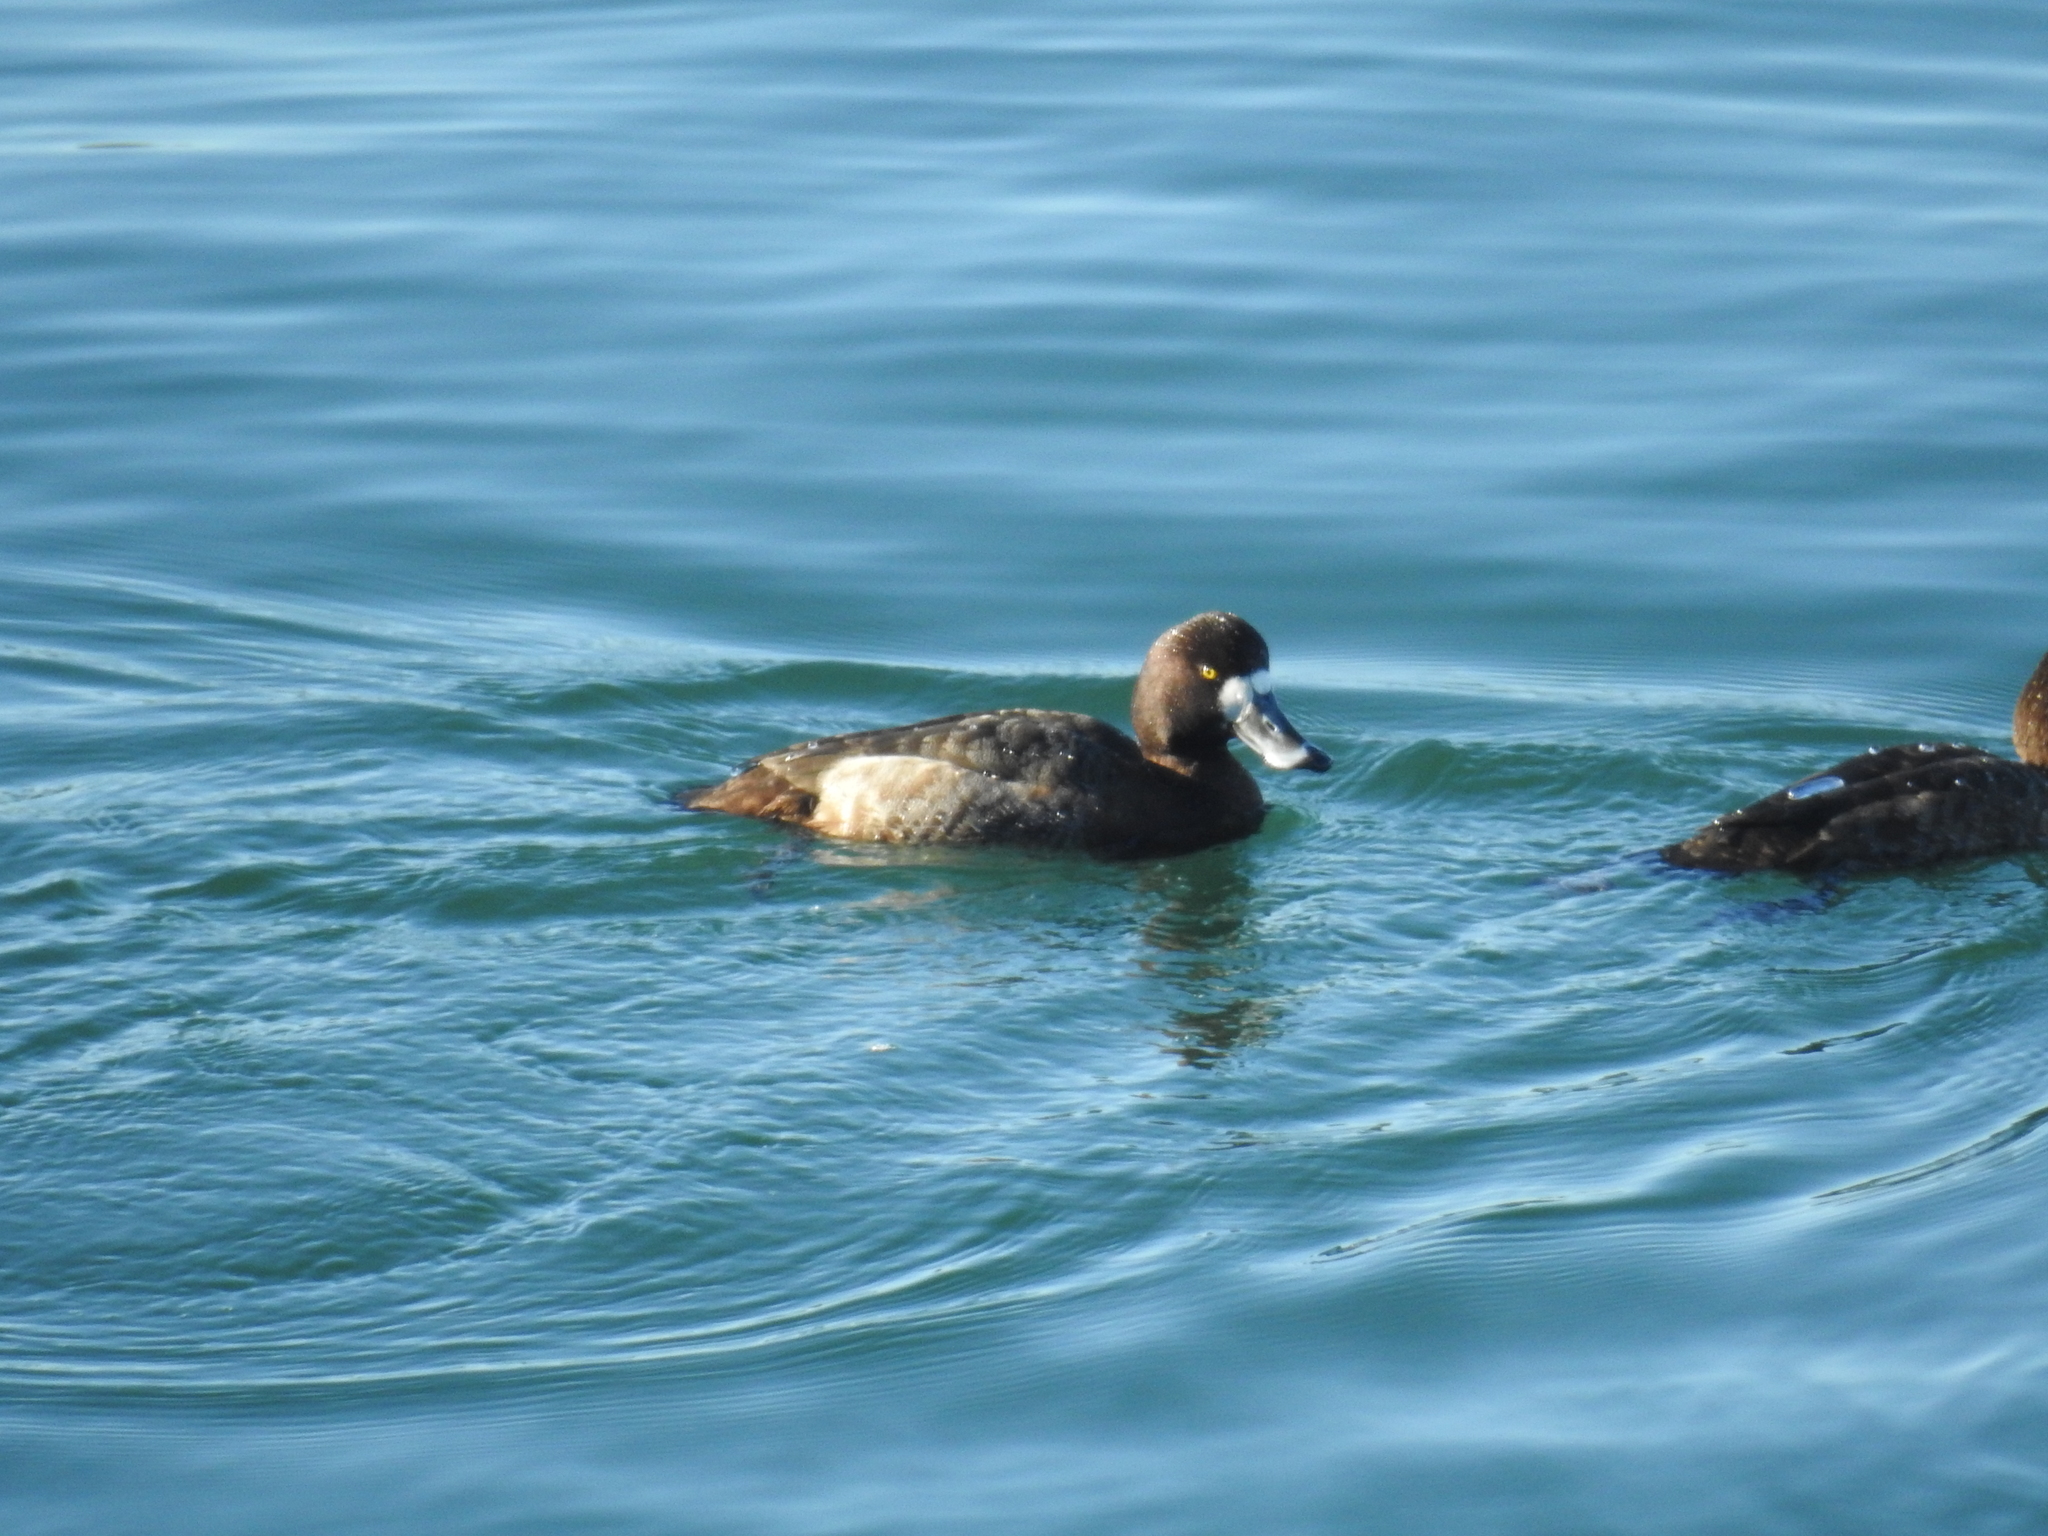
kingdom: Animalia
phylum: Chordata
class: Aves
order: Anseriformes
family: Anatidae
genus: Aythya
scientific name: Aythya marila
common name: Greater scaup
